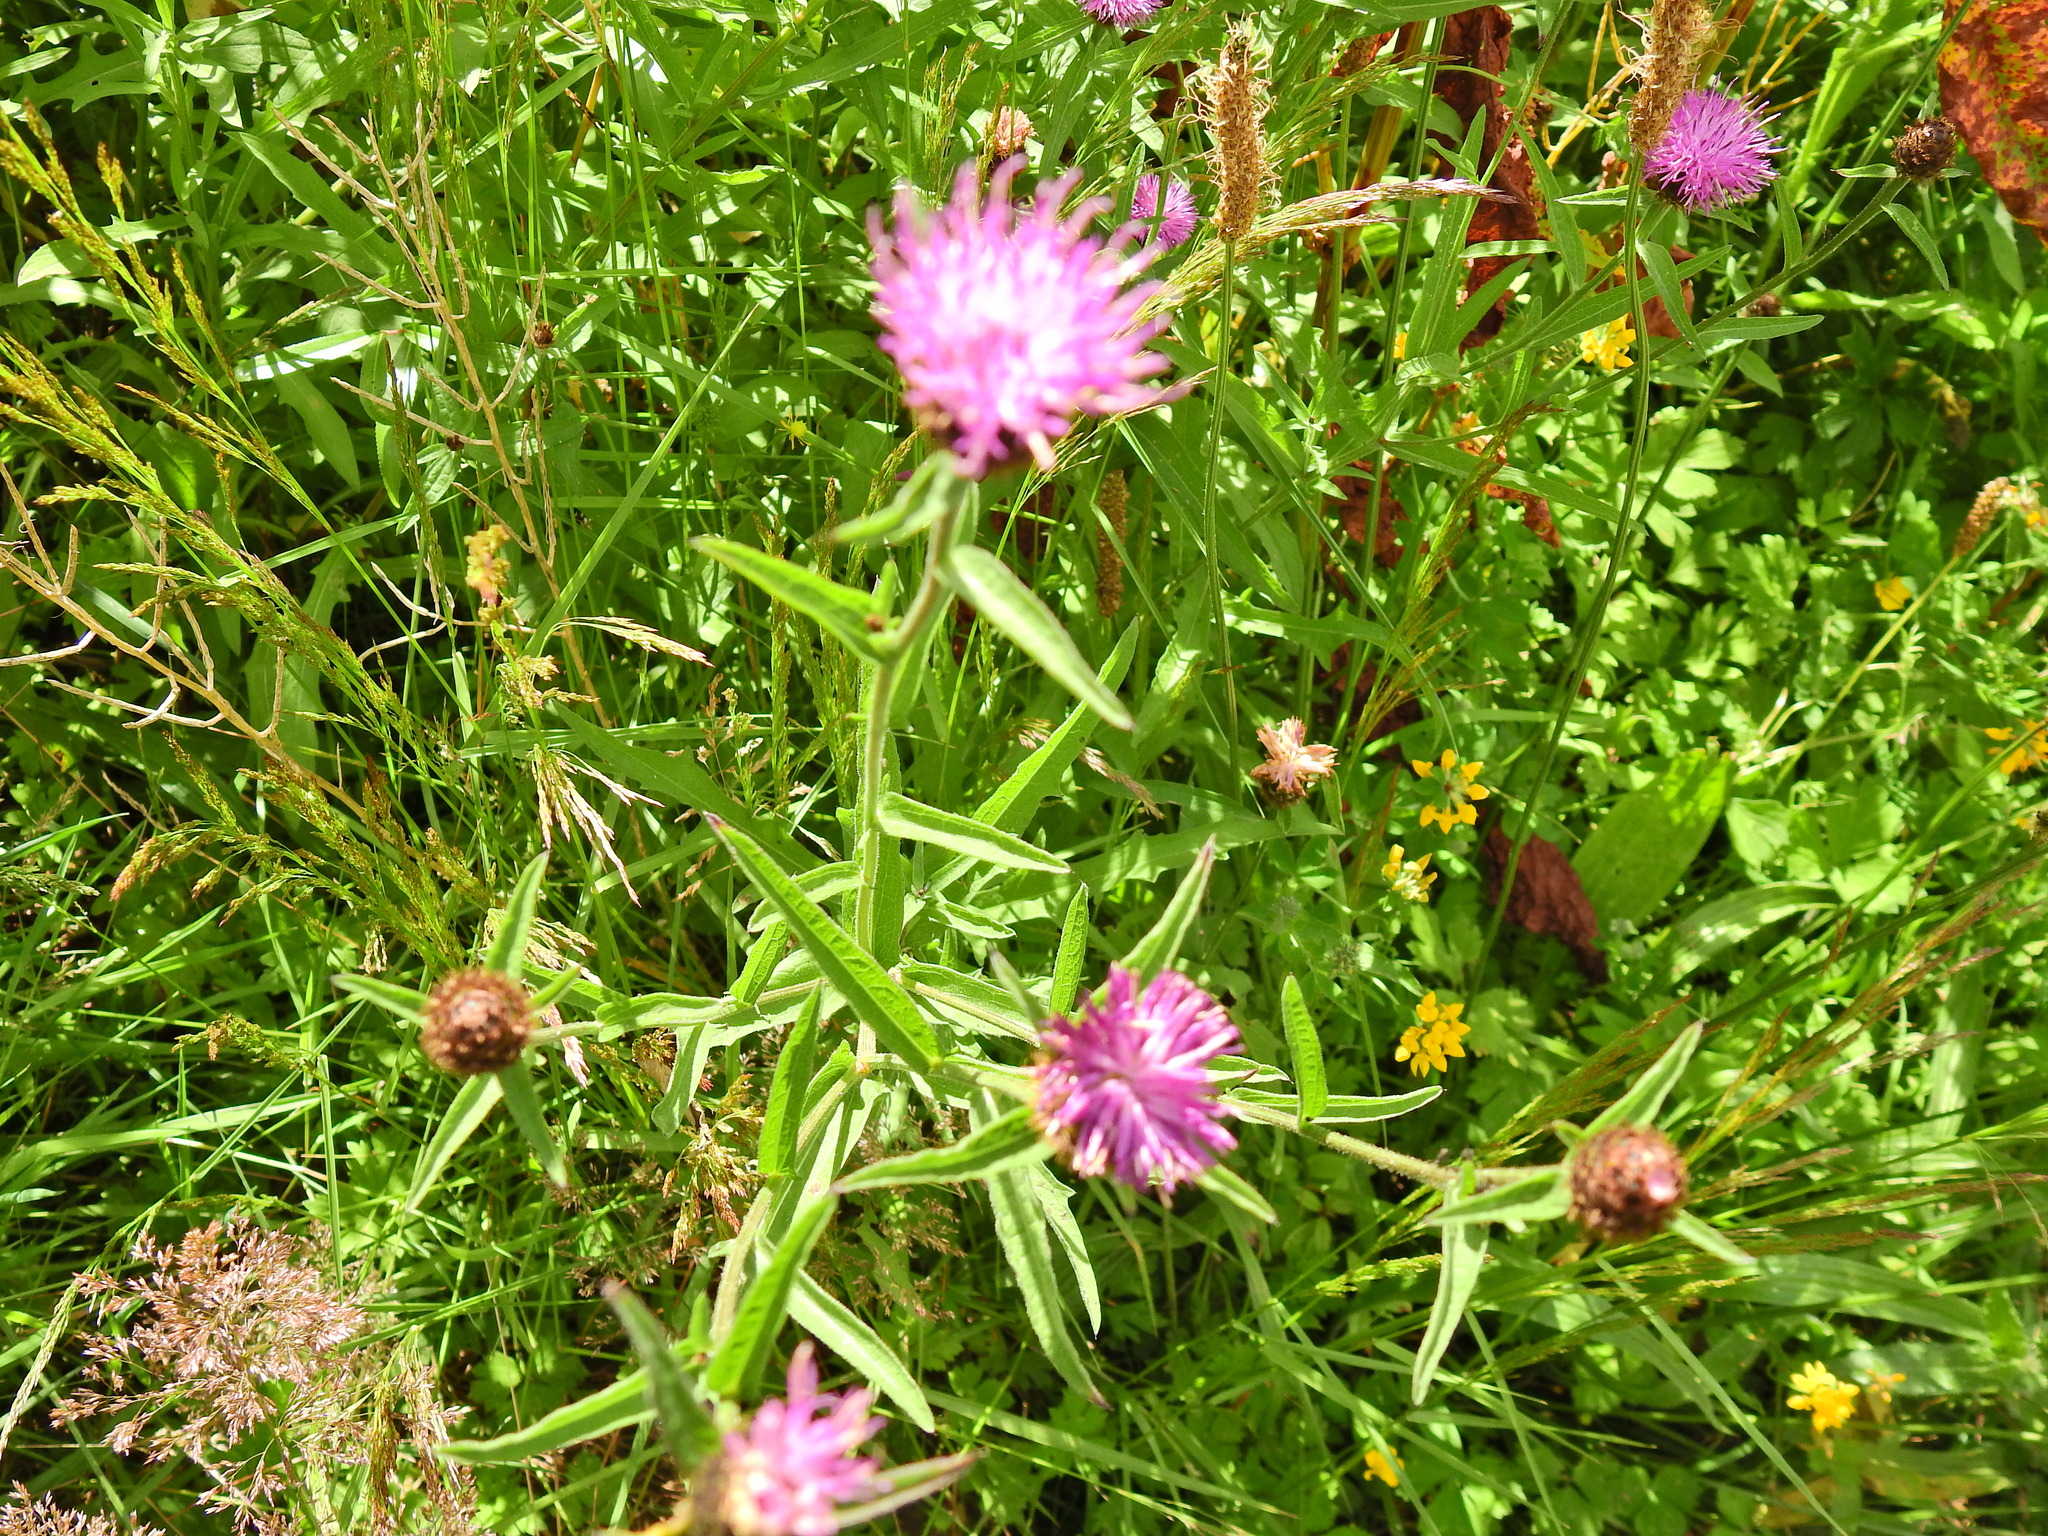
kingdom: Plantae
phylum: Tracheophyta
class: Magnoliopsida
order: Asterales
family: Asteraceae
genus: Centaurea
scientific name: Centaurea nigra
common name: Lesser knapweed
